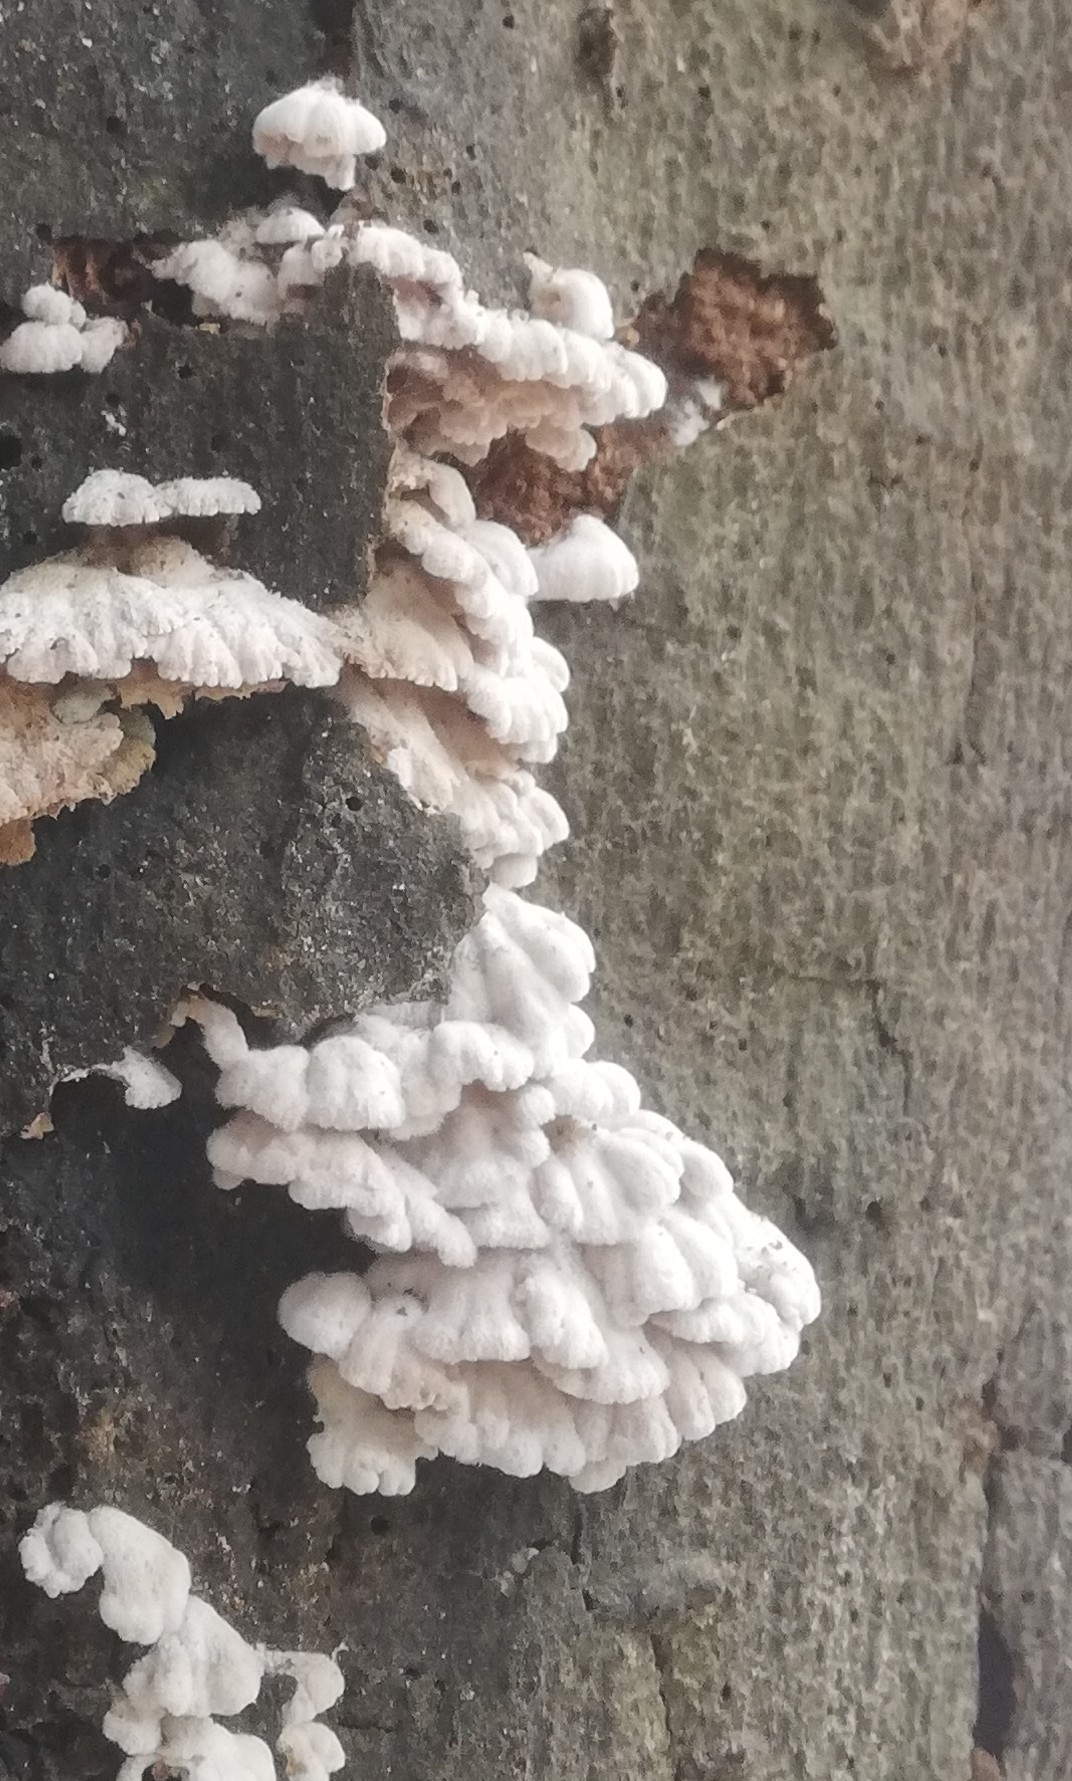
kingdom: Fungi
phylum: Basidiomycota
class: Agaricomycetes
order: Agaricales
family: Schizophyllaceae
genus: Schizophyllum
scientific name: Schizophyllum commune
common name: Common porecrust
